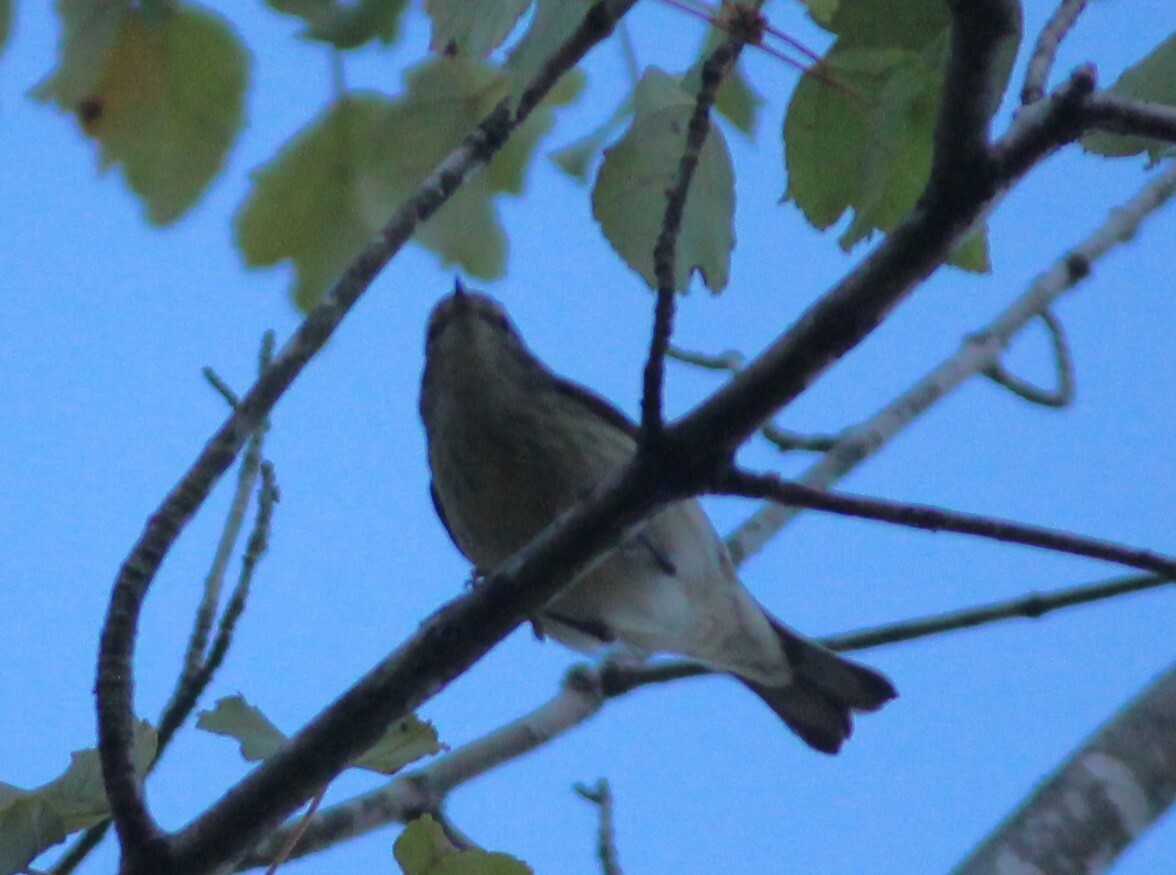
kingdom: Animalia
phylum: Chordata
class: Aves
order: Passeriformes
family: Parulidae
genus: Setophaga
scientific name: Setophaga tigrina
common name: Cape may warbler
